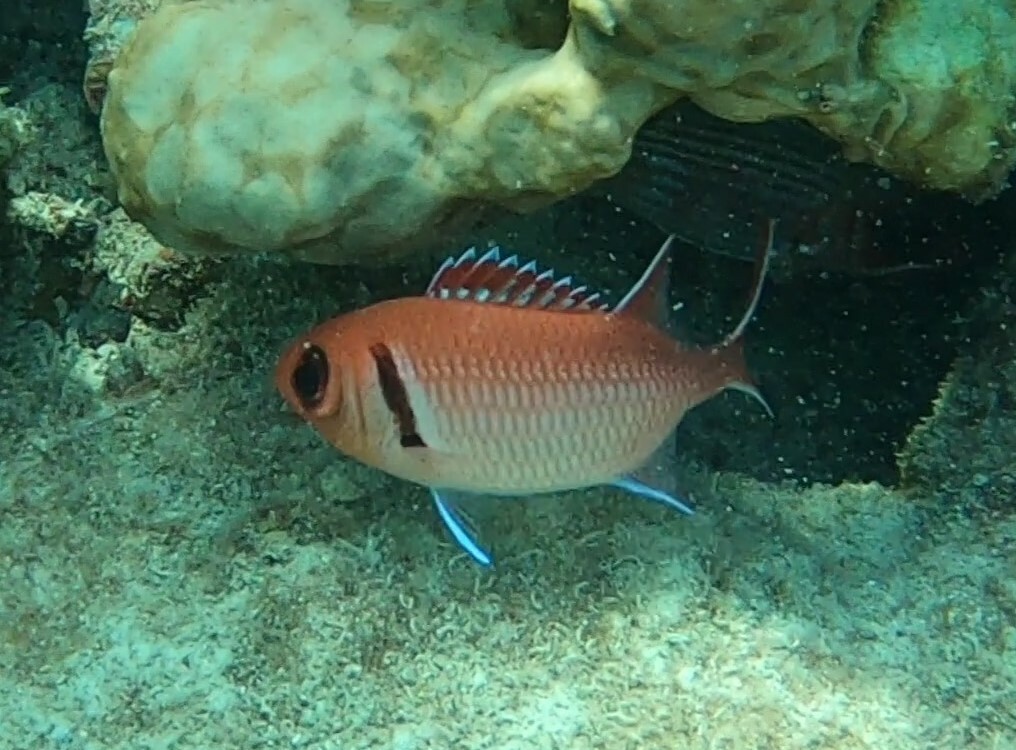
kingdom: Animalia
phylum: Chordata
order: Beryciformes
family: Holocentridae
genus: Myripristis
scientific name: Myripristis jacobus
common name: Blackbar soldierfish
